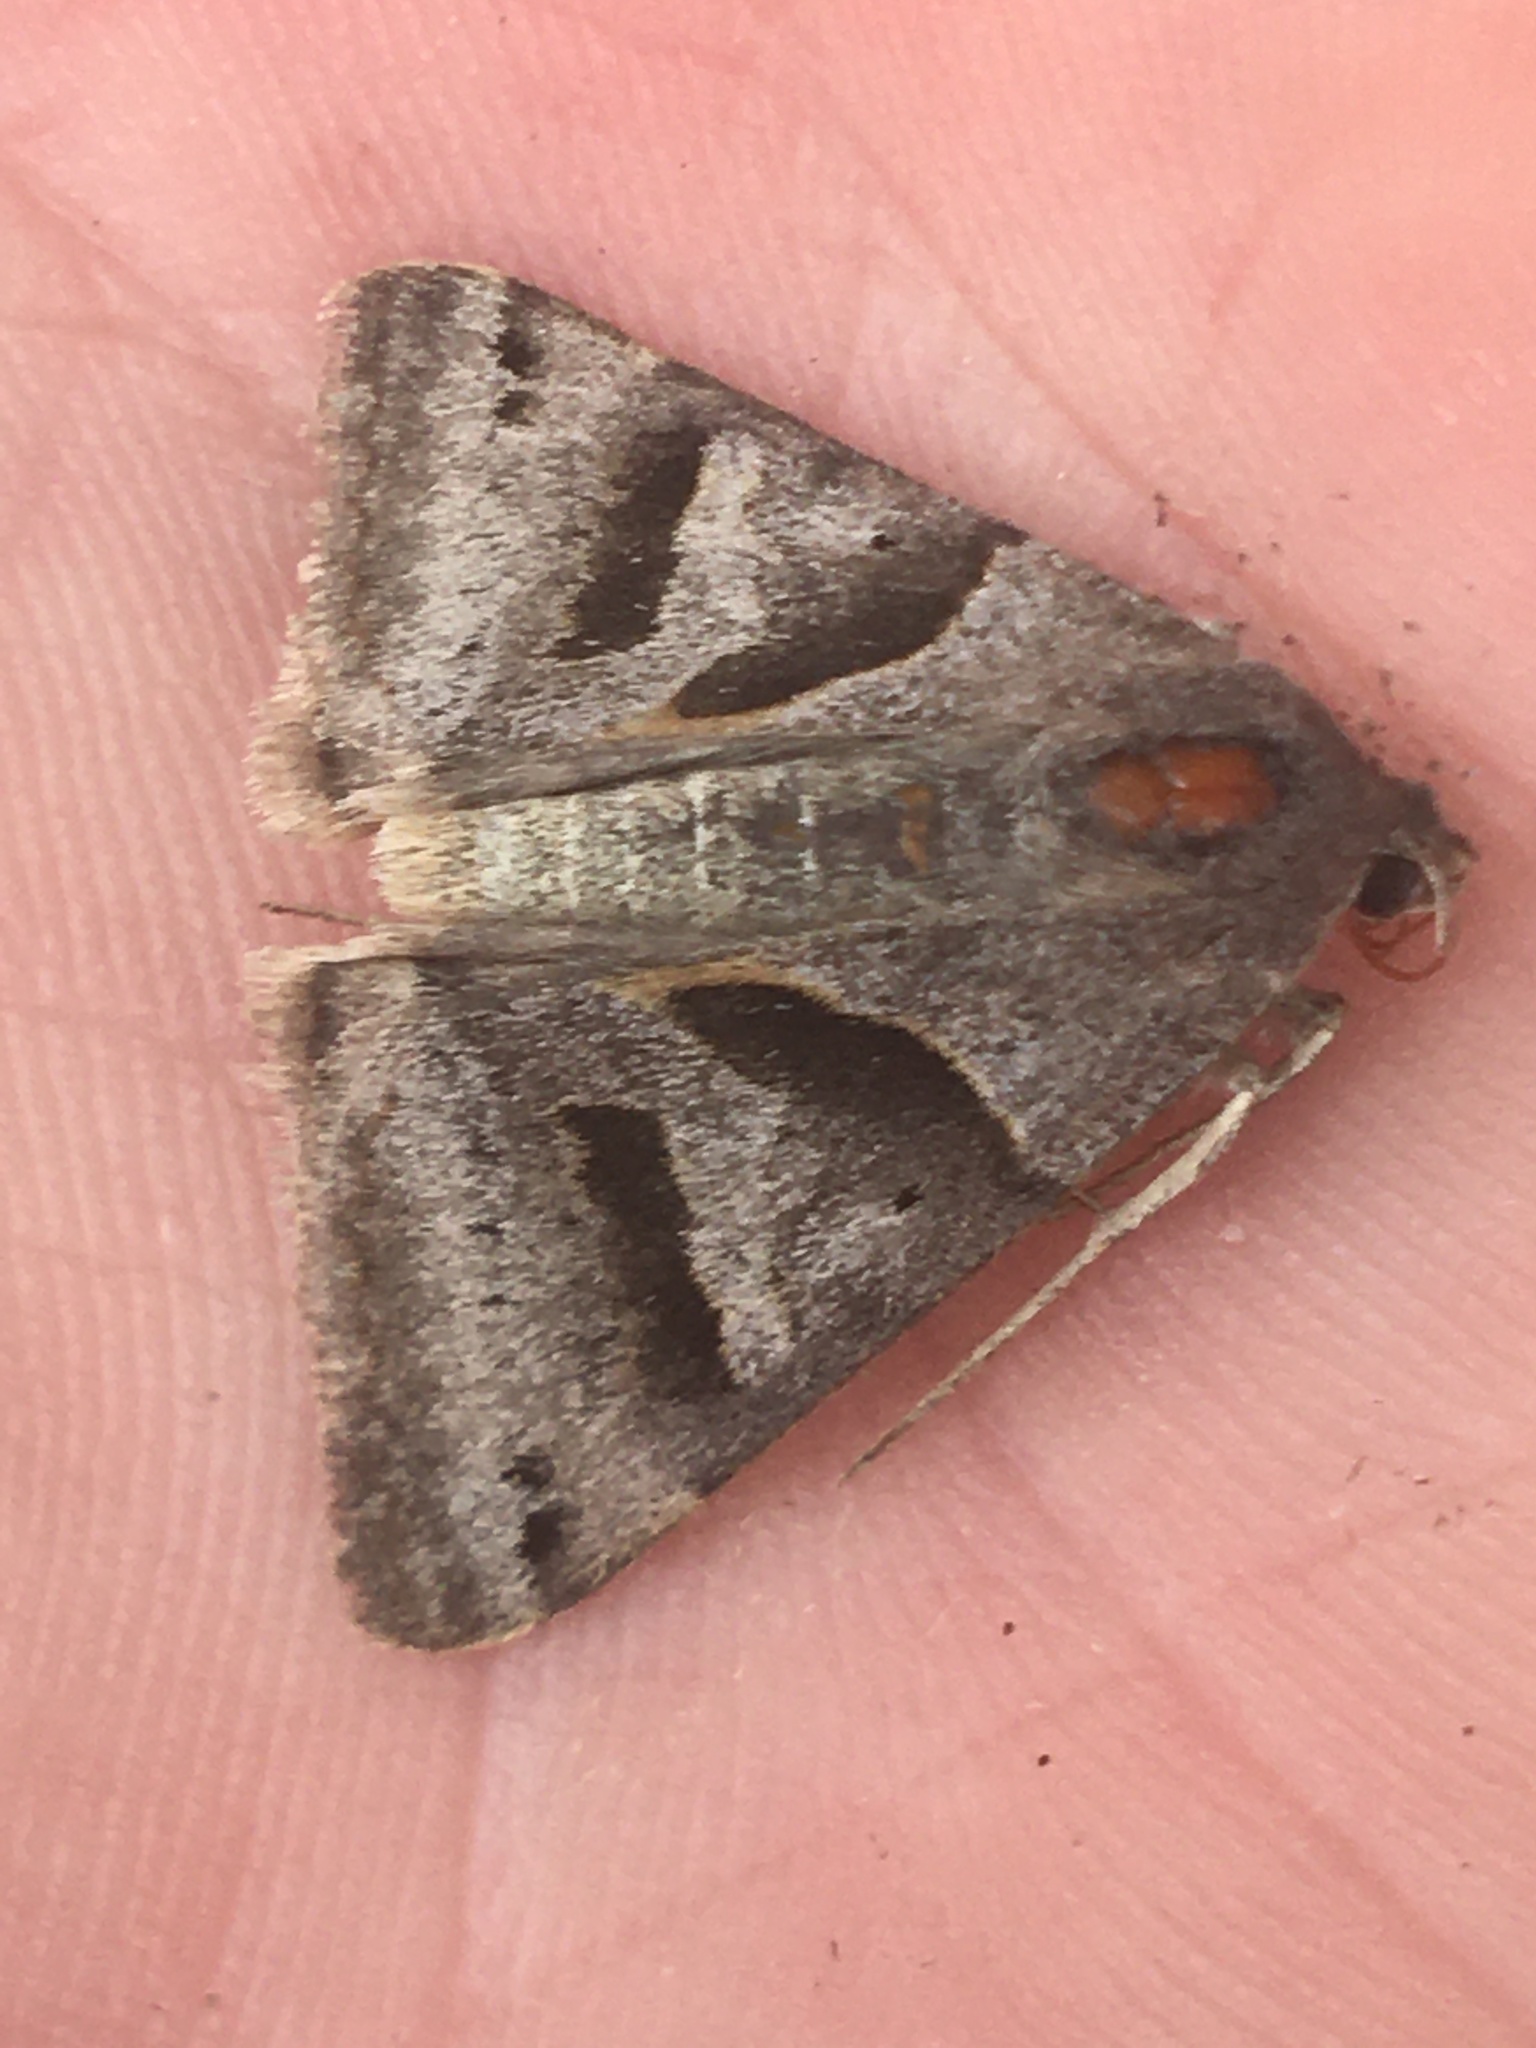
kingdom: Animalia
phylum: Arthropoda
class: Insecta
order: Lepidoptera
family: Erebidae
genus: Caenurgina
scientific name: Caenurgina erechtea
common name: Forage looper moth
